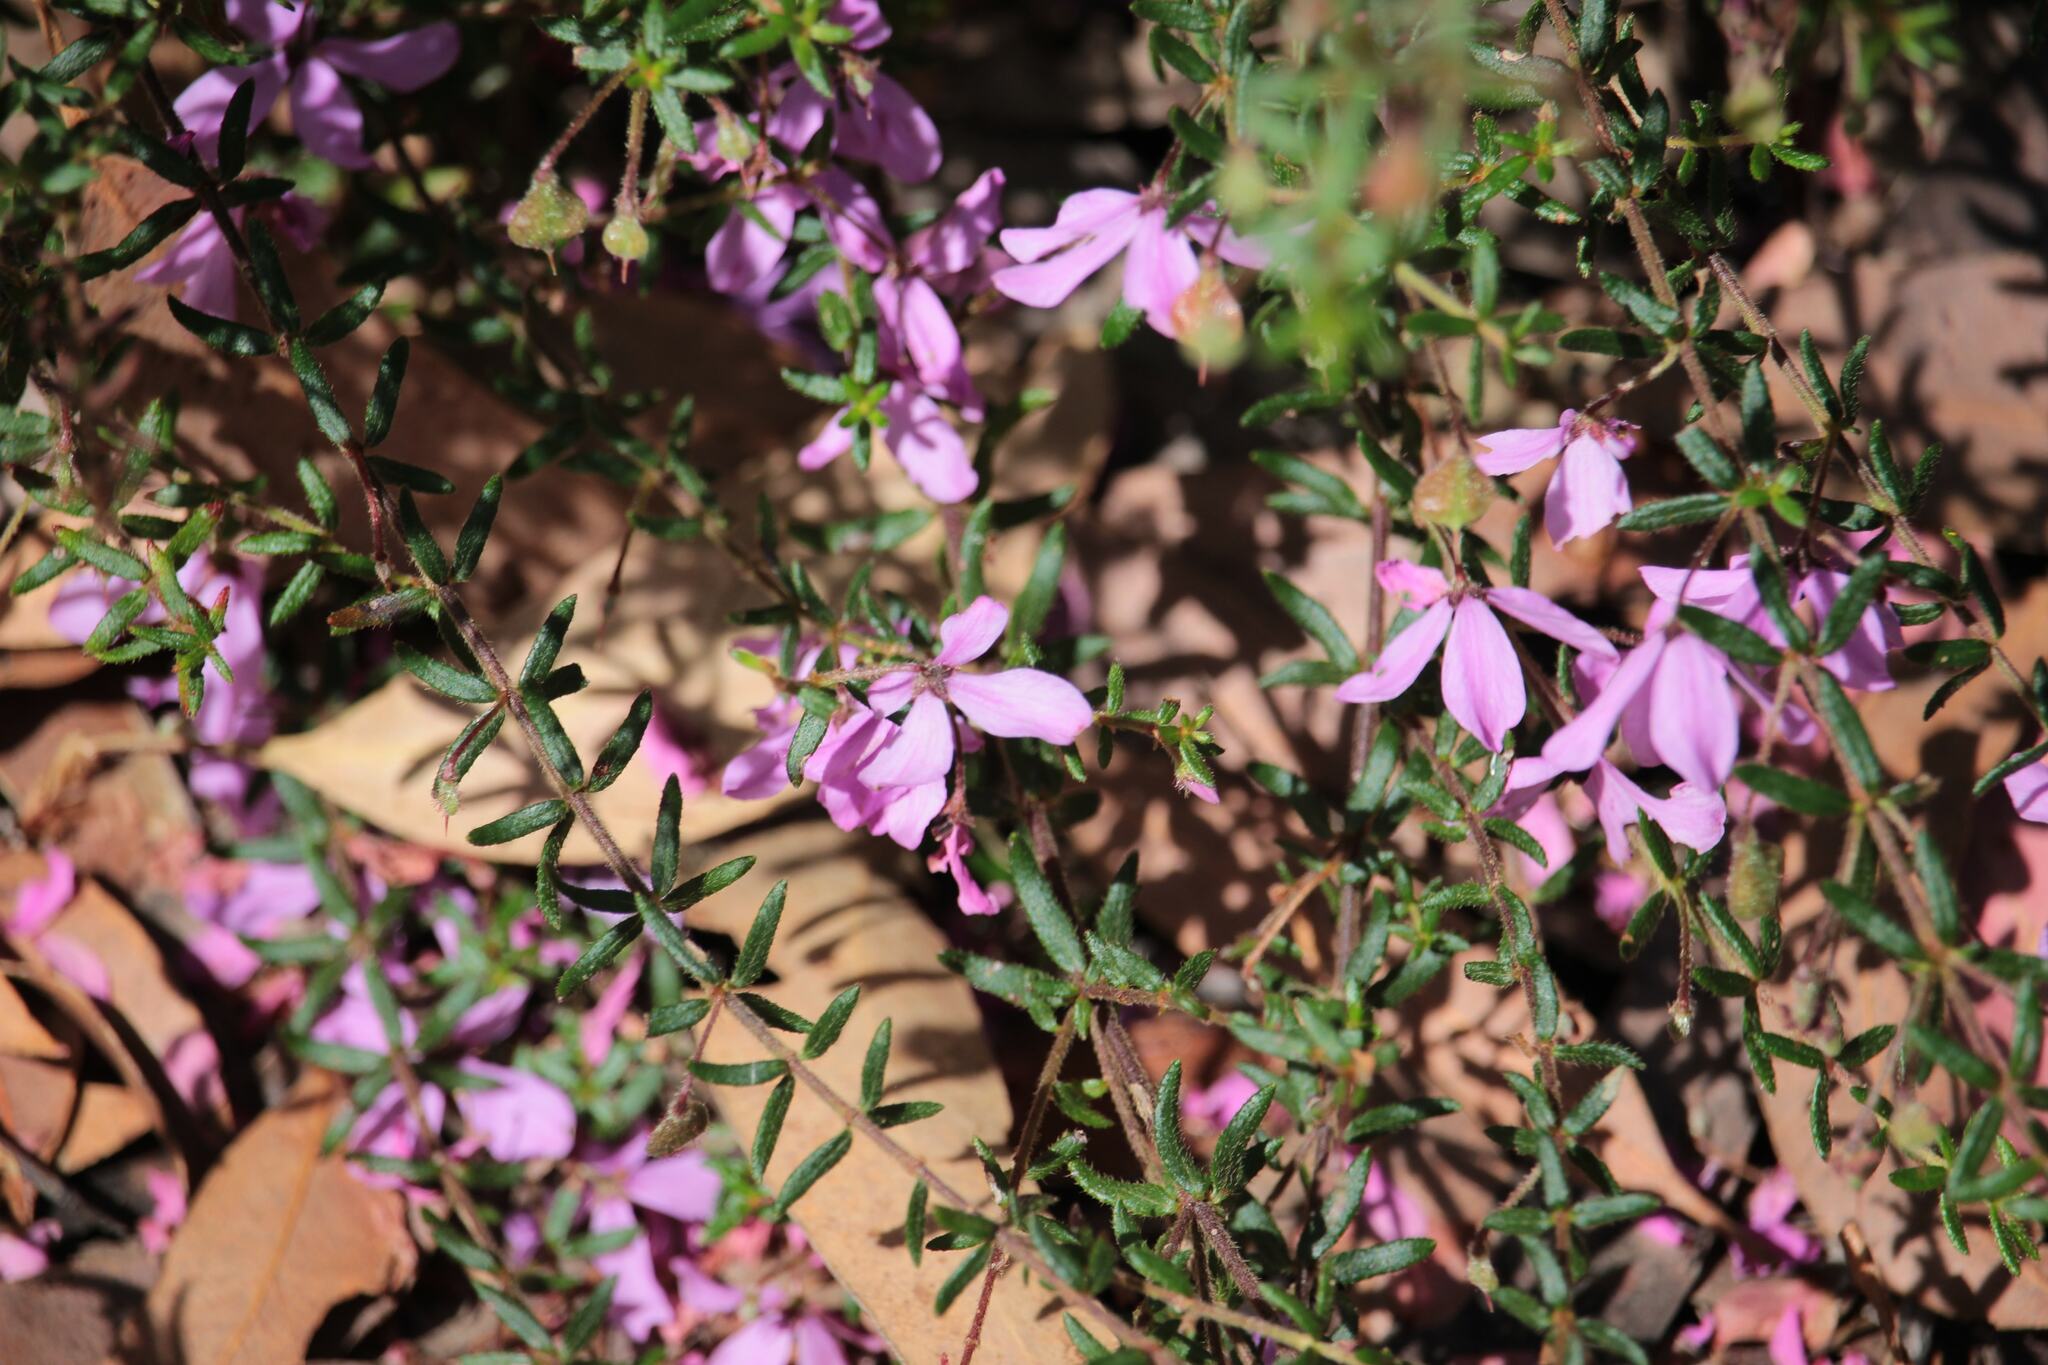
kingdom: Plantae
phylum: Tracheophyta
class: Magnoliopsida
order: Oxalidales
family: Elaeocarpaceae
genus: Tetratheca
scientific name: Tetratheca thymifolia
